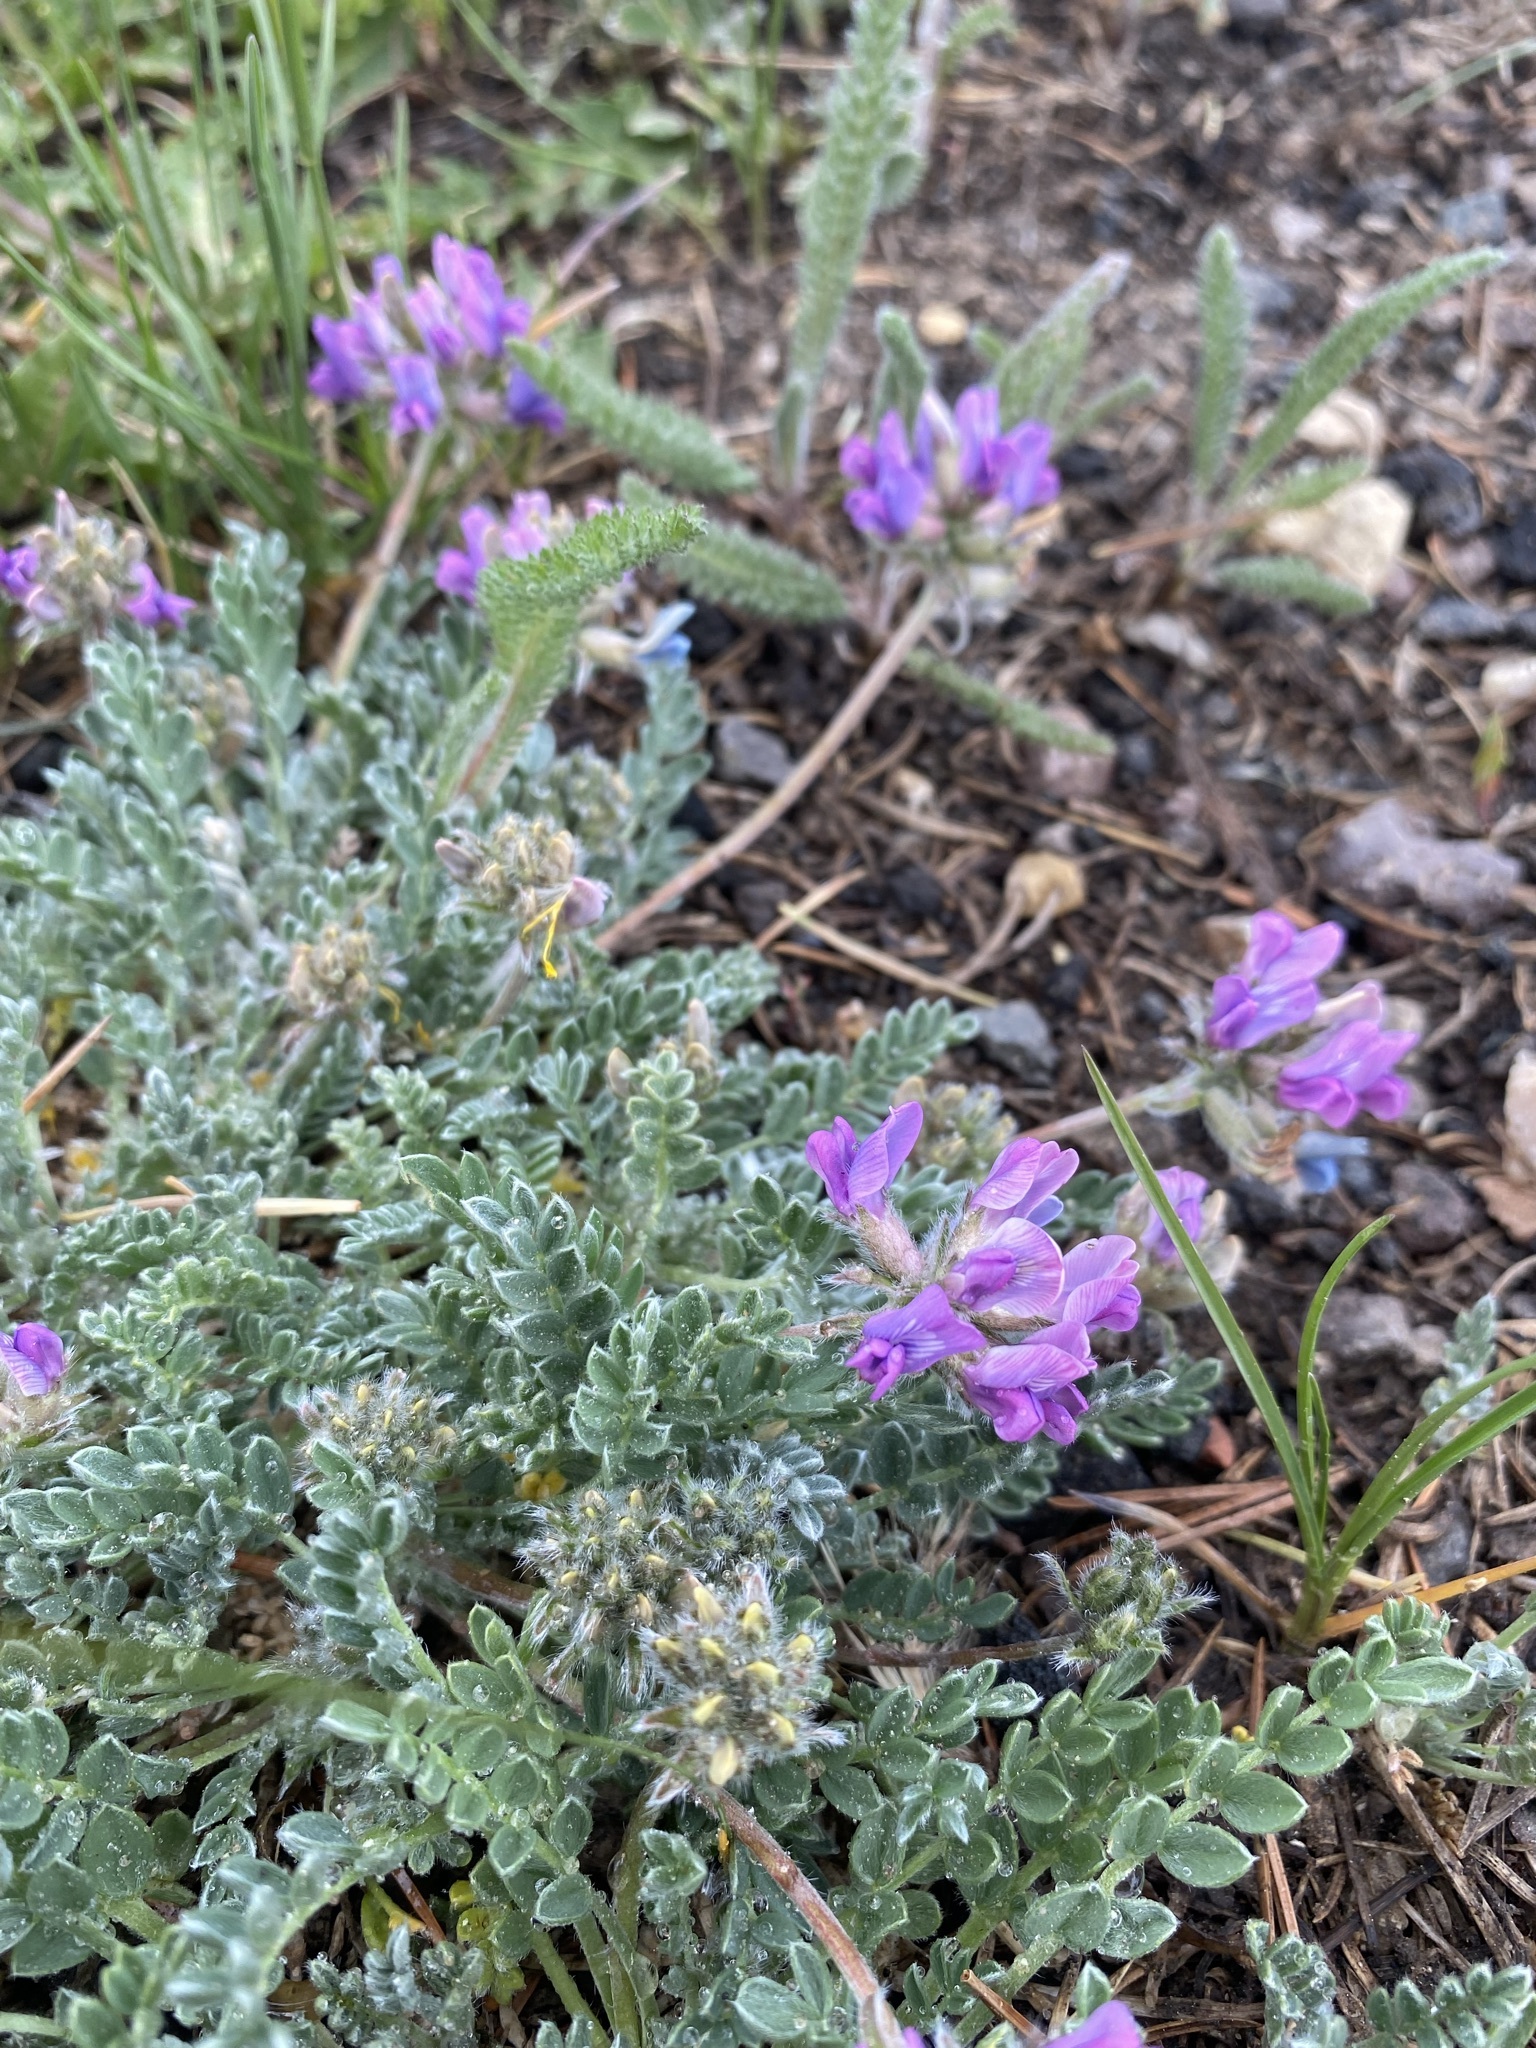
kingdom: Plantae
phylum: Tracheophyta
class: Magnoliopsida
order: Fabales
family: Fabaceae
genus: Oxytropis
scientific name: Oxytropis oreophila
